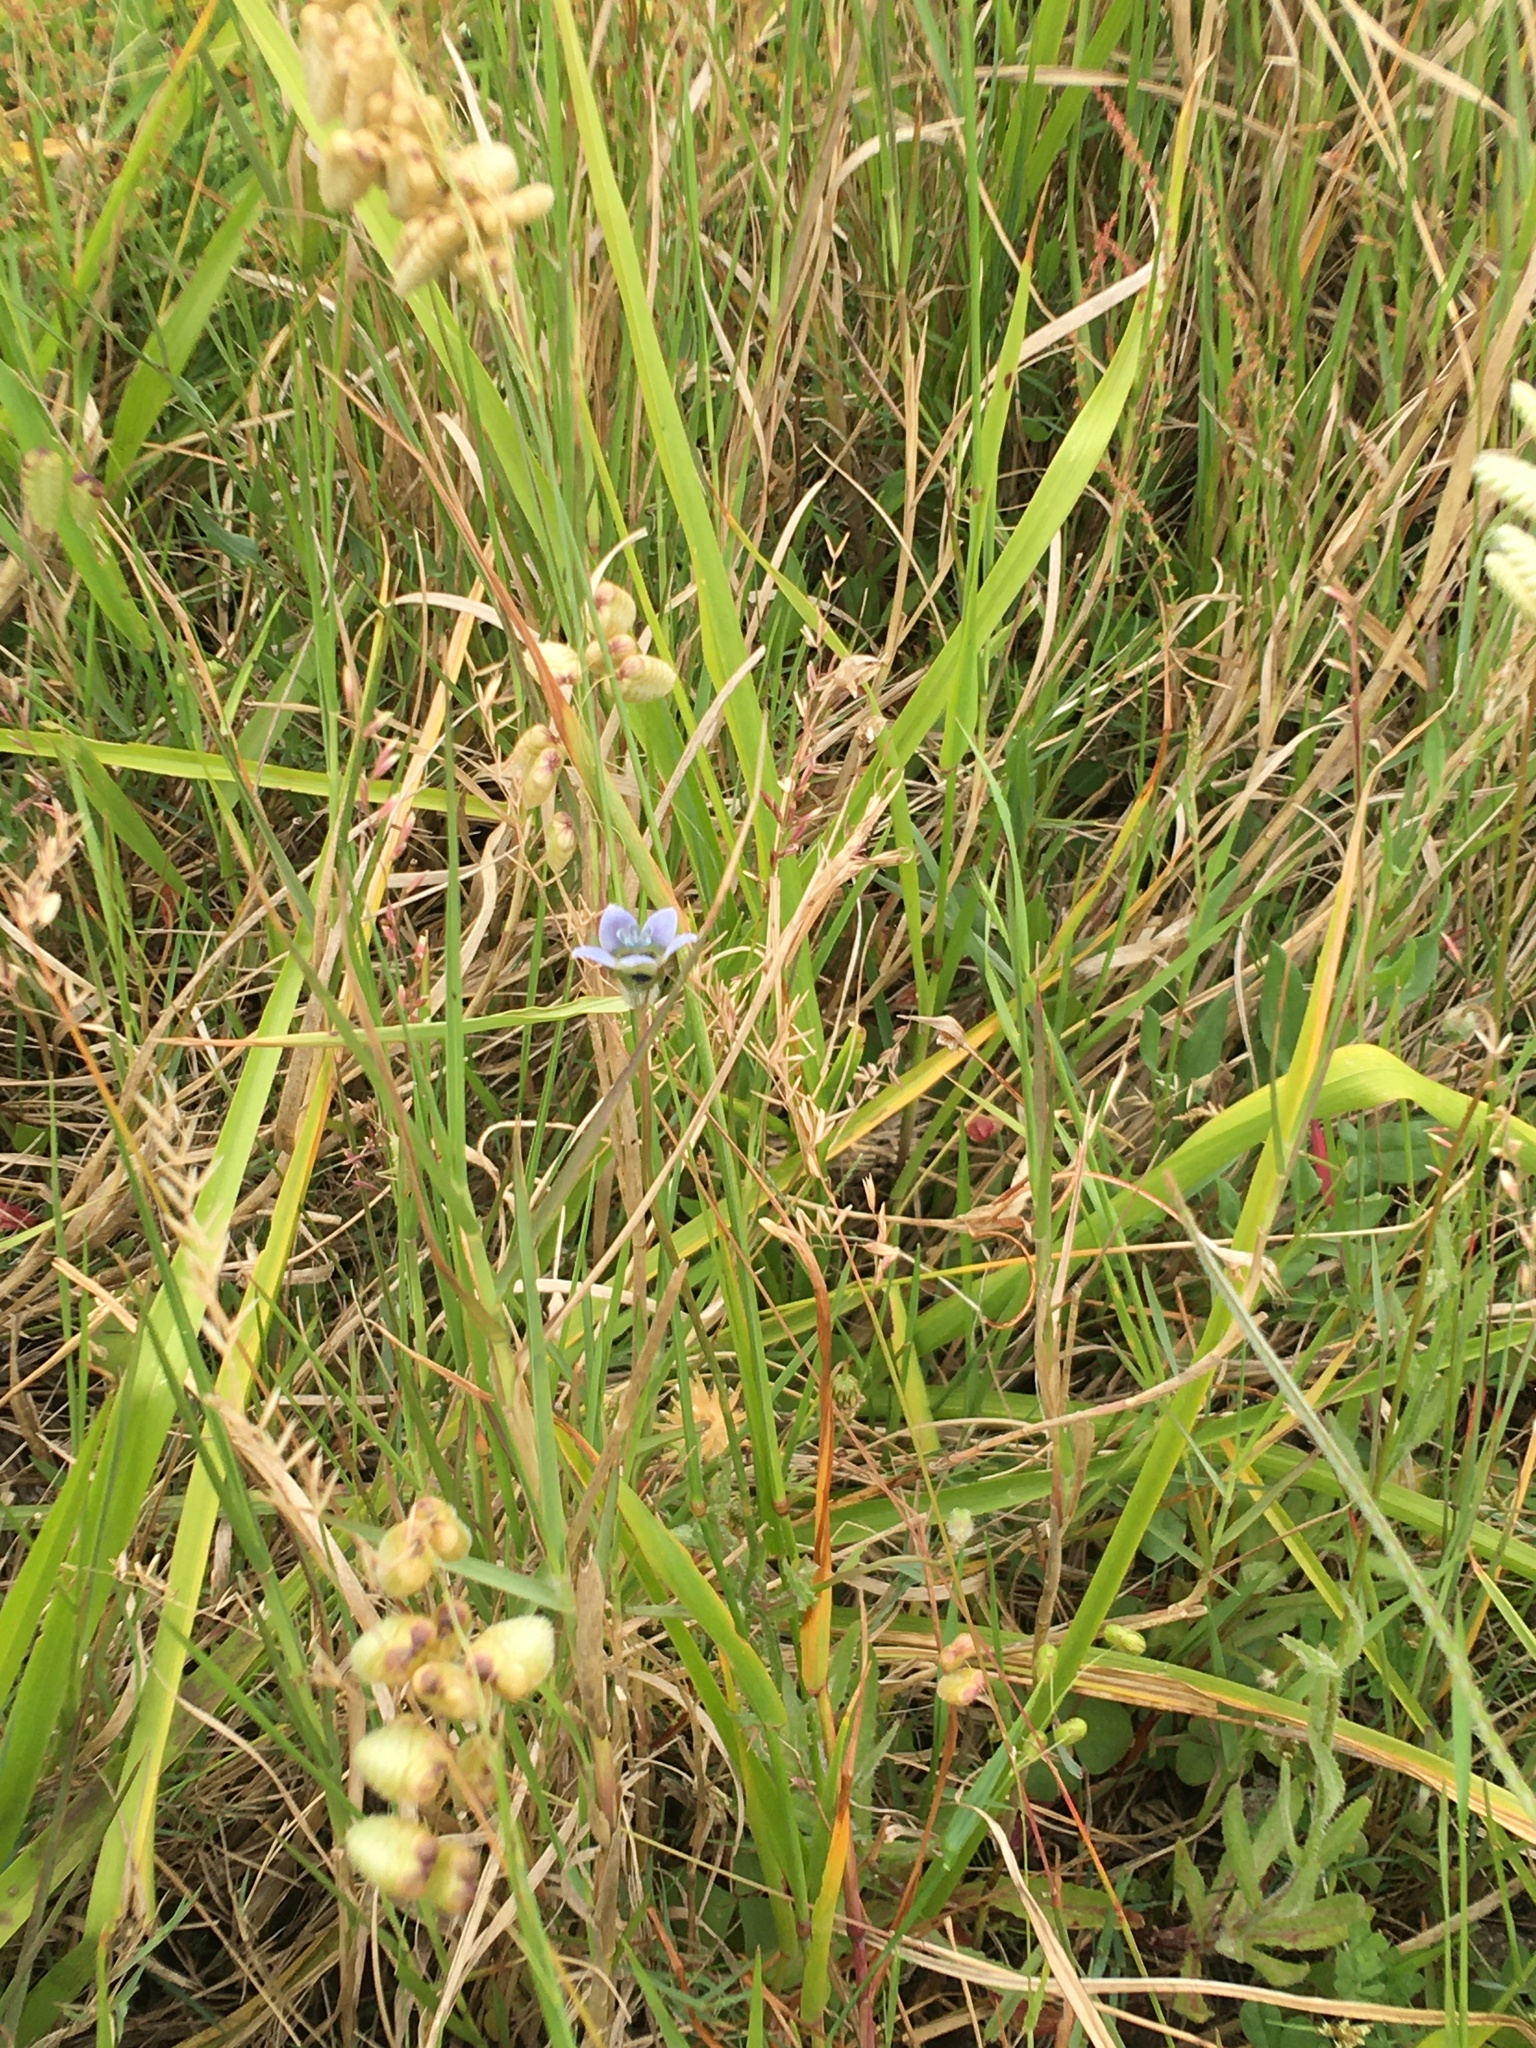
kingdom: Plantae
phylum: Tracheophyta
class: Magnoliopsida
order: Asterales
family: Campanulaceae
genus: Wahlenbergia
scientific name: Wahlenbergia capensis
